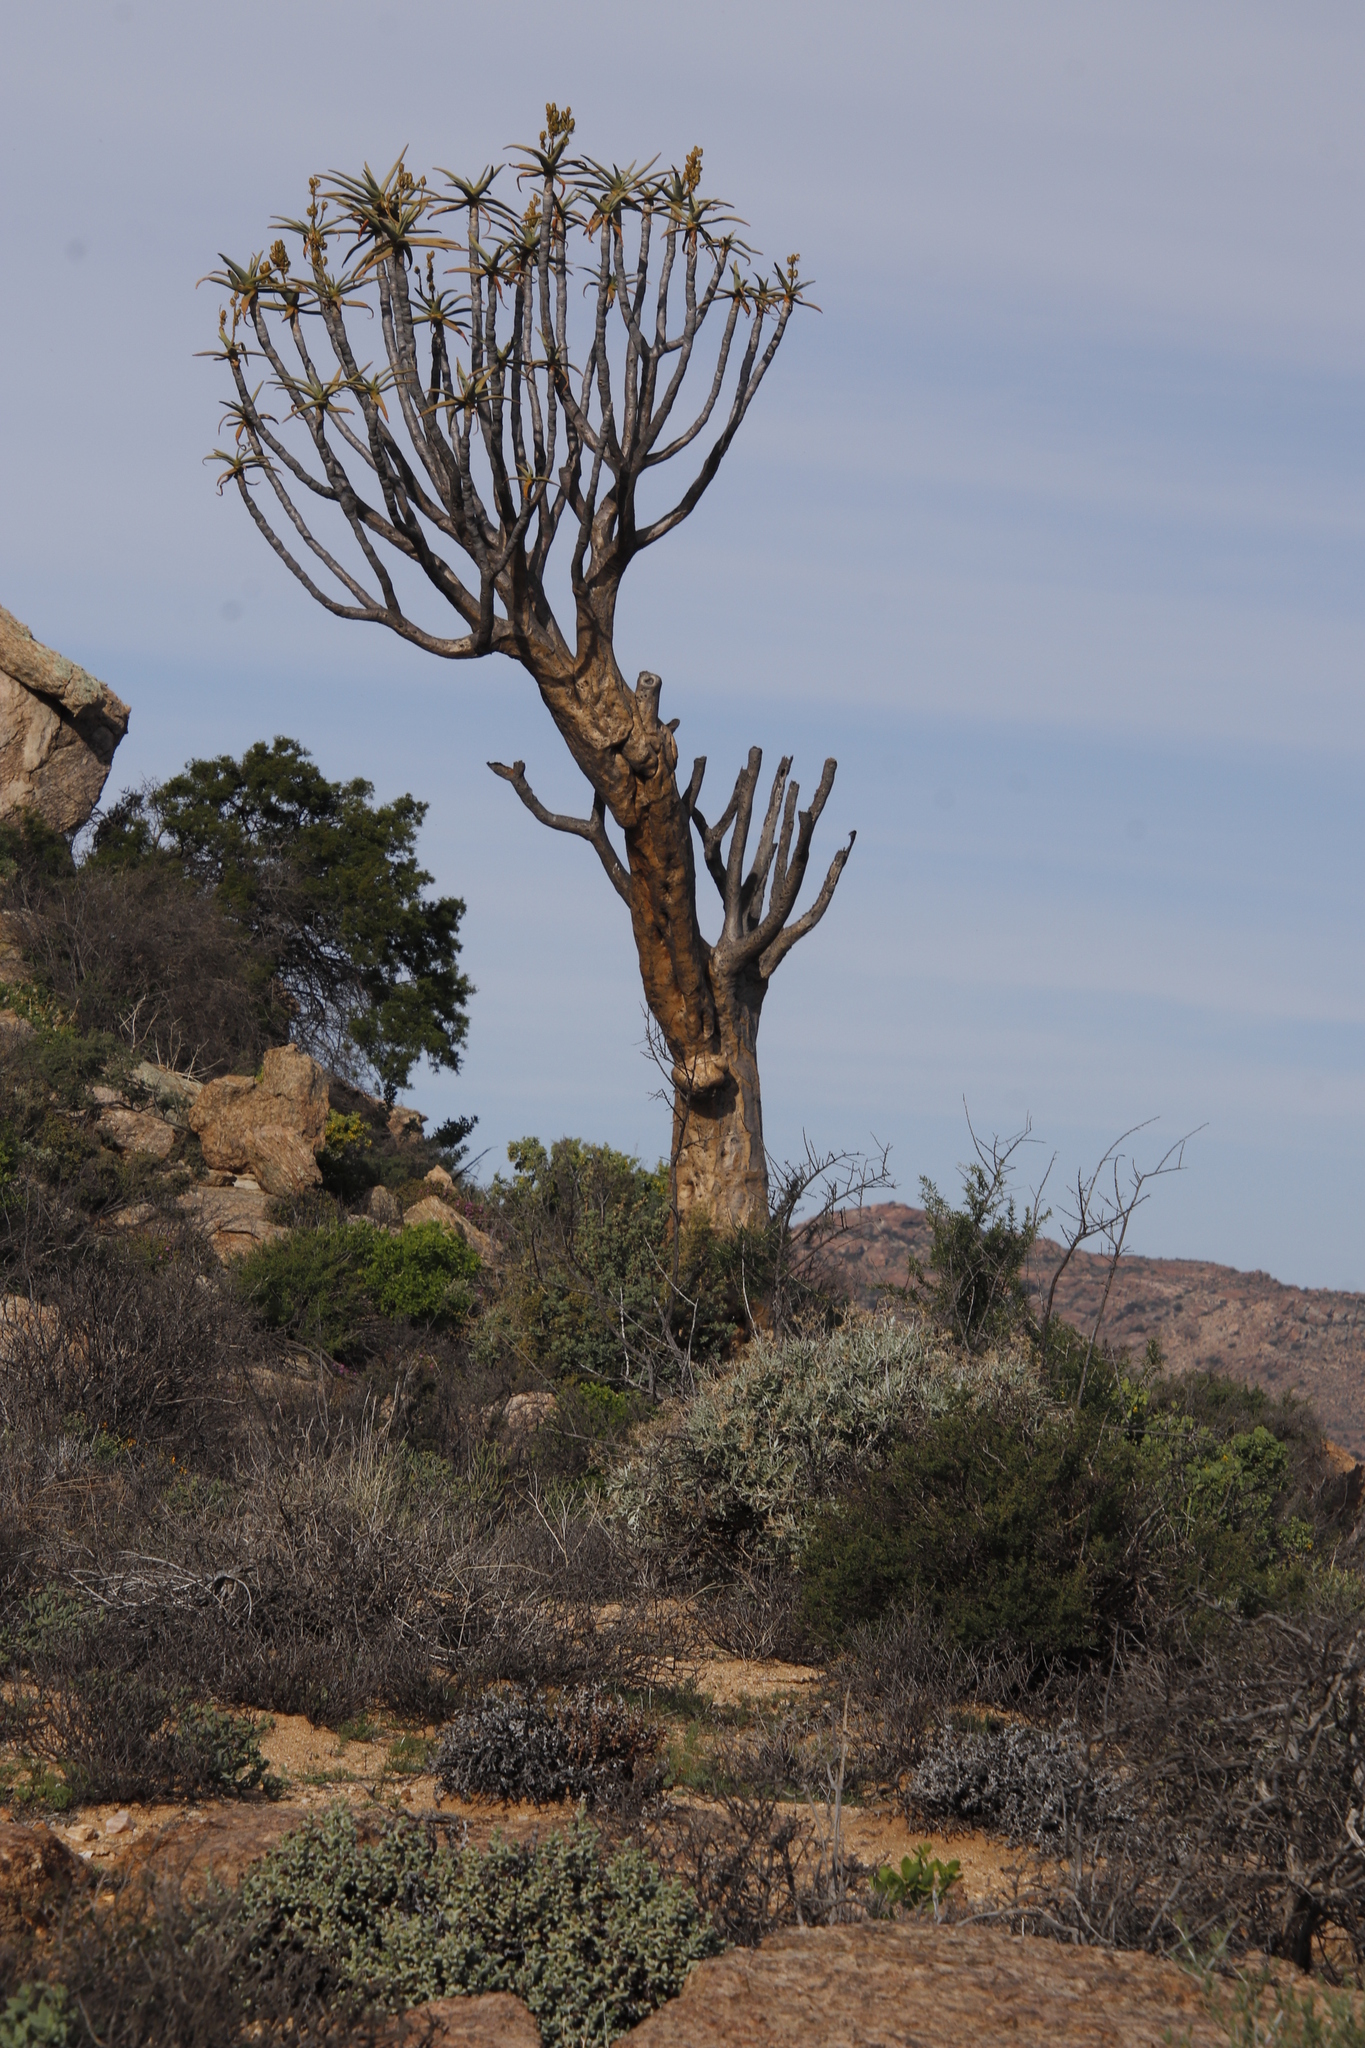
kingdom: Plantae
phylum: Tracheophyta
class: Liliopsida
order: Asparagales
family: Asphodelaceae
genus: Aloidendron
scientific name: Aloidendron dichotomum
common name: Quiver tree
